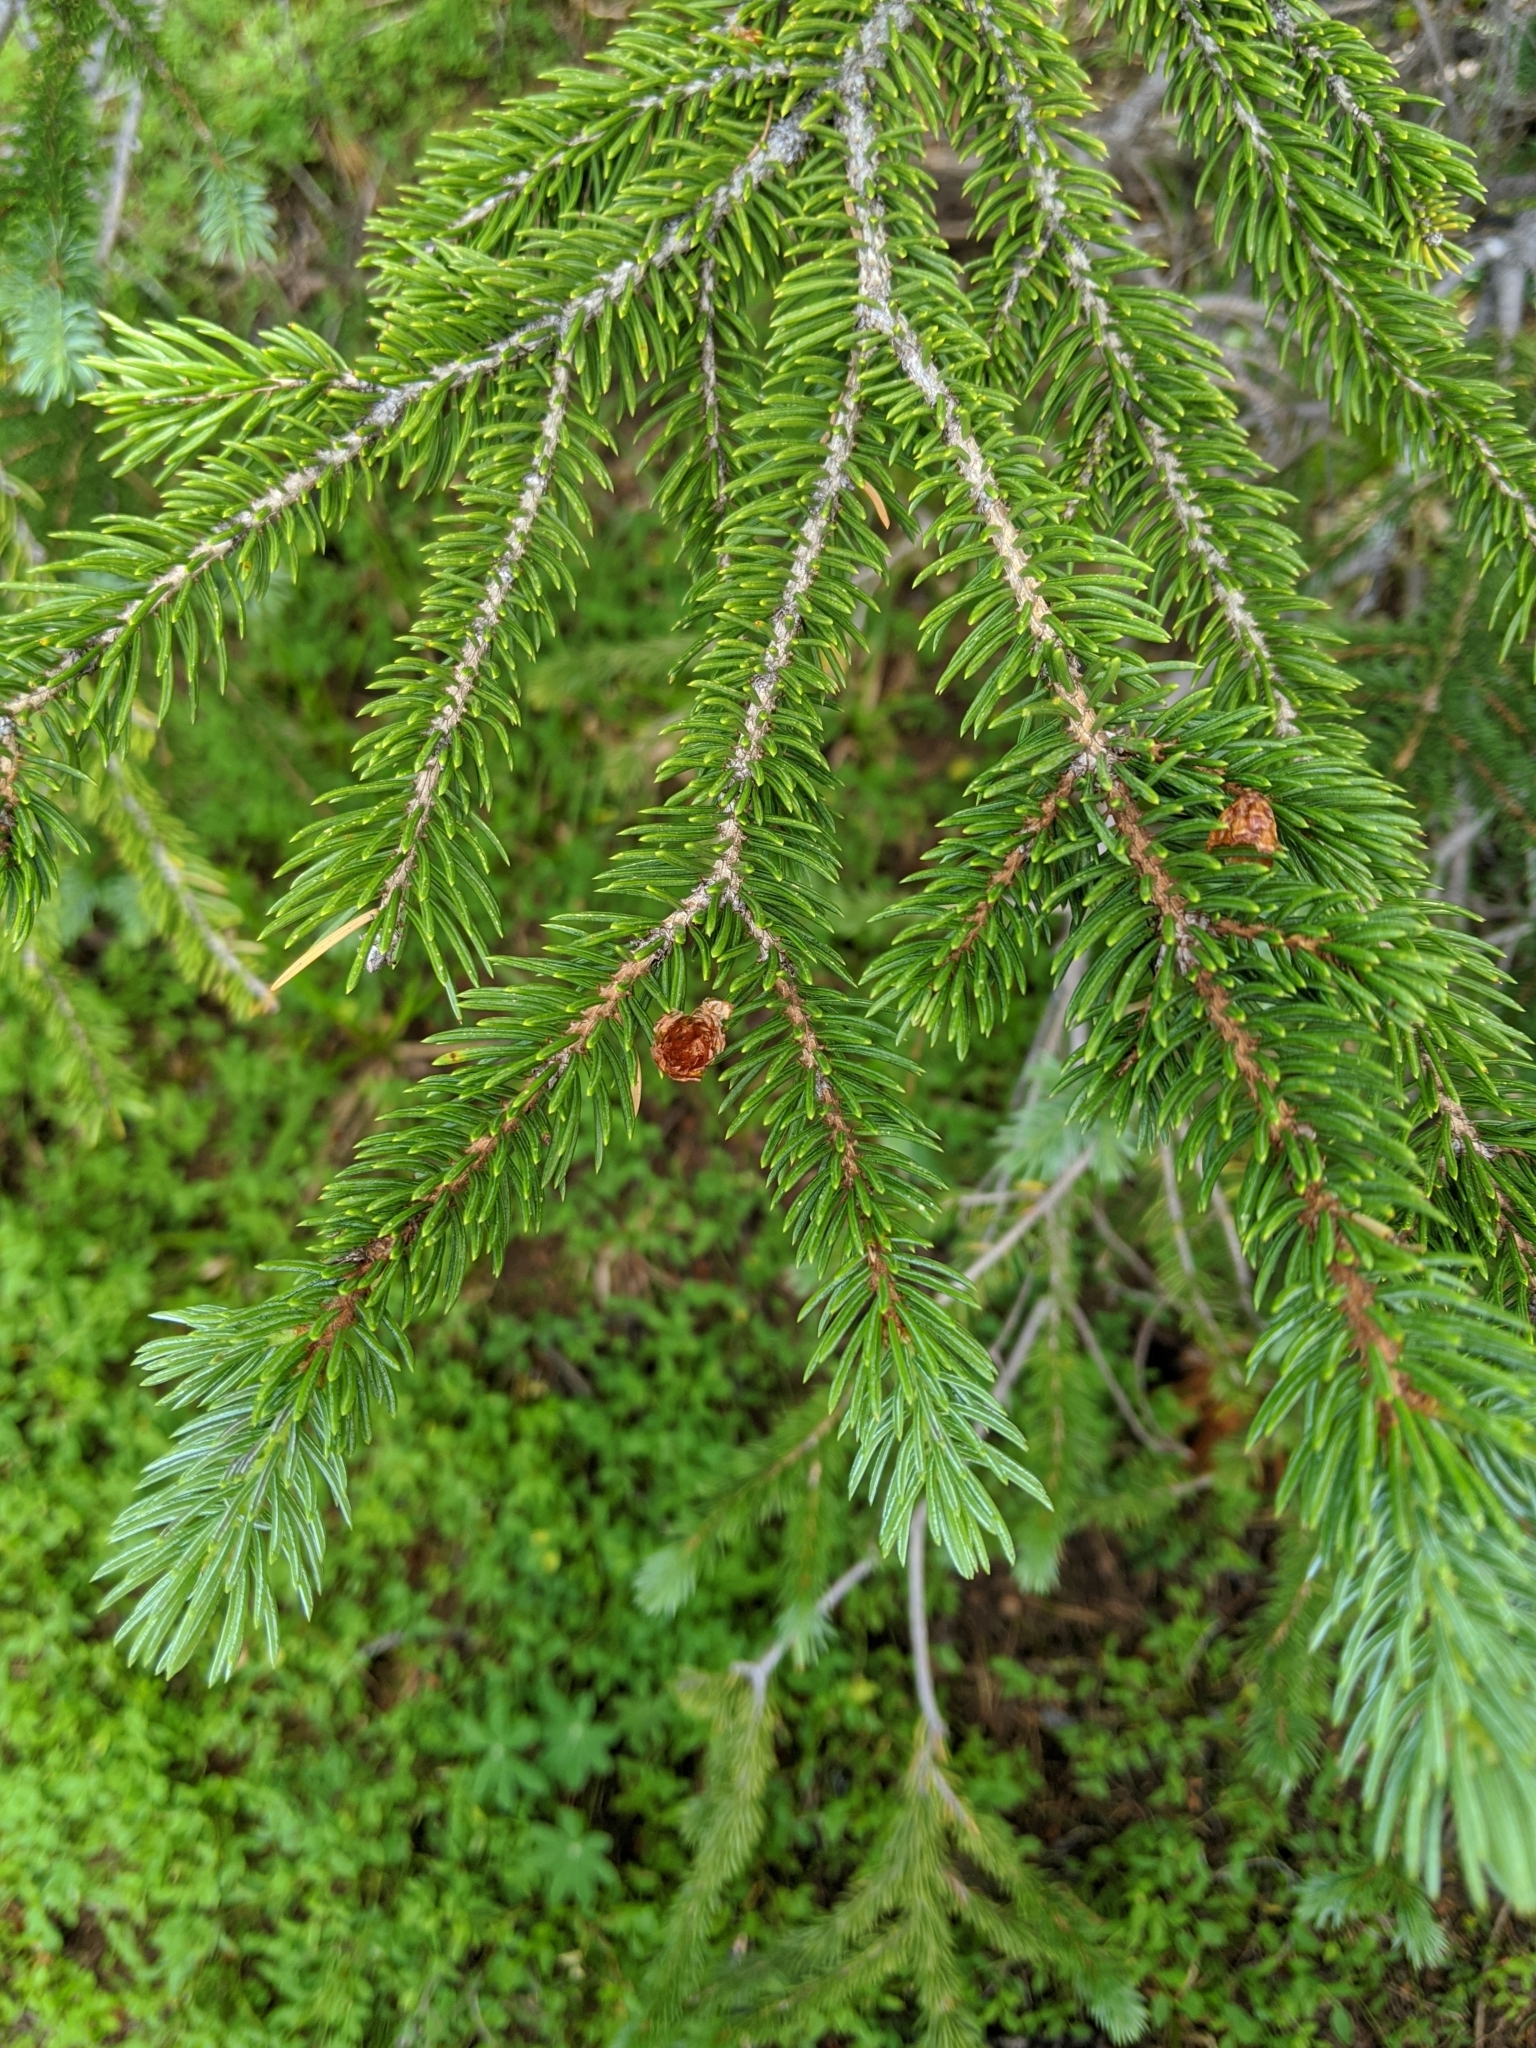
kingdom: Plantae
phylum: Tracheophyta
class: Pinopsida
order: Pinales
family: Pinaceae
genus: Picea
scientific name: Picea engelmannii
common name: Engelmann spruce
